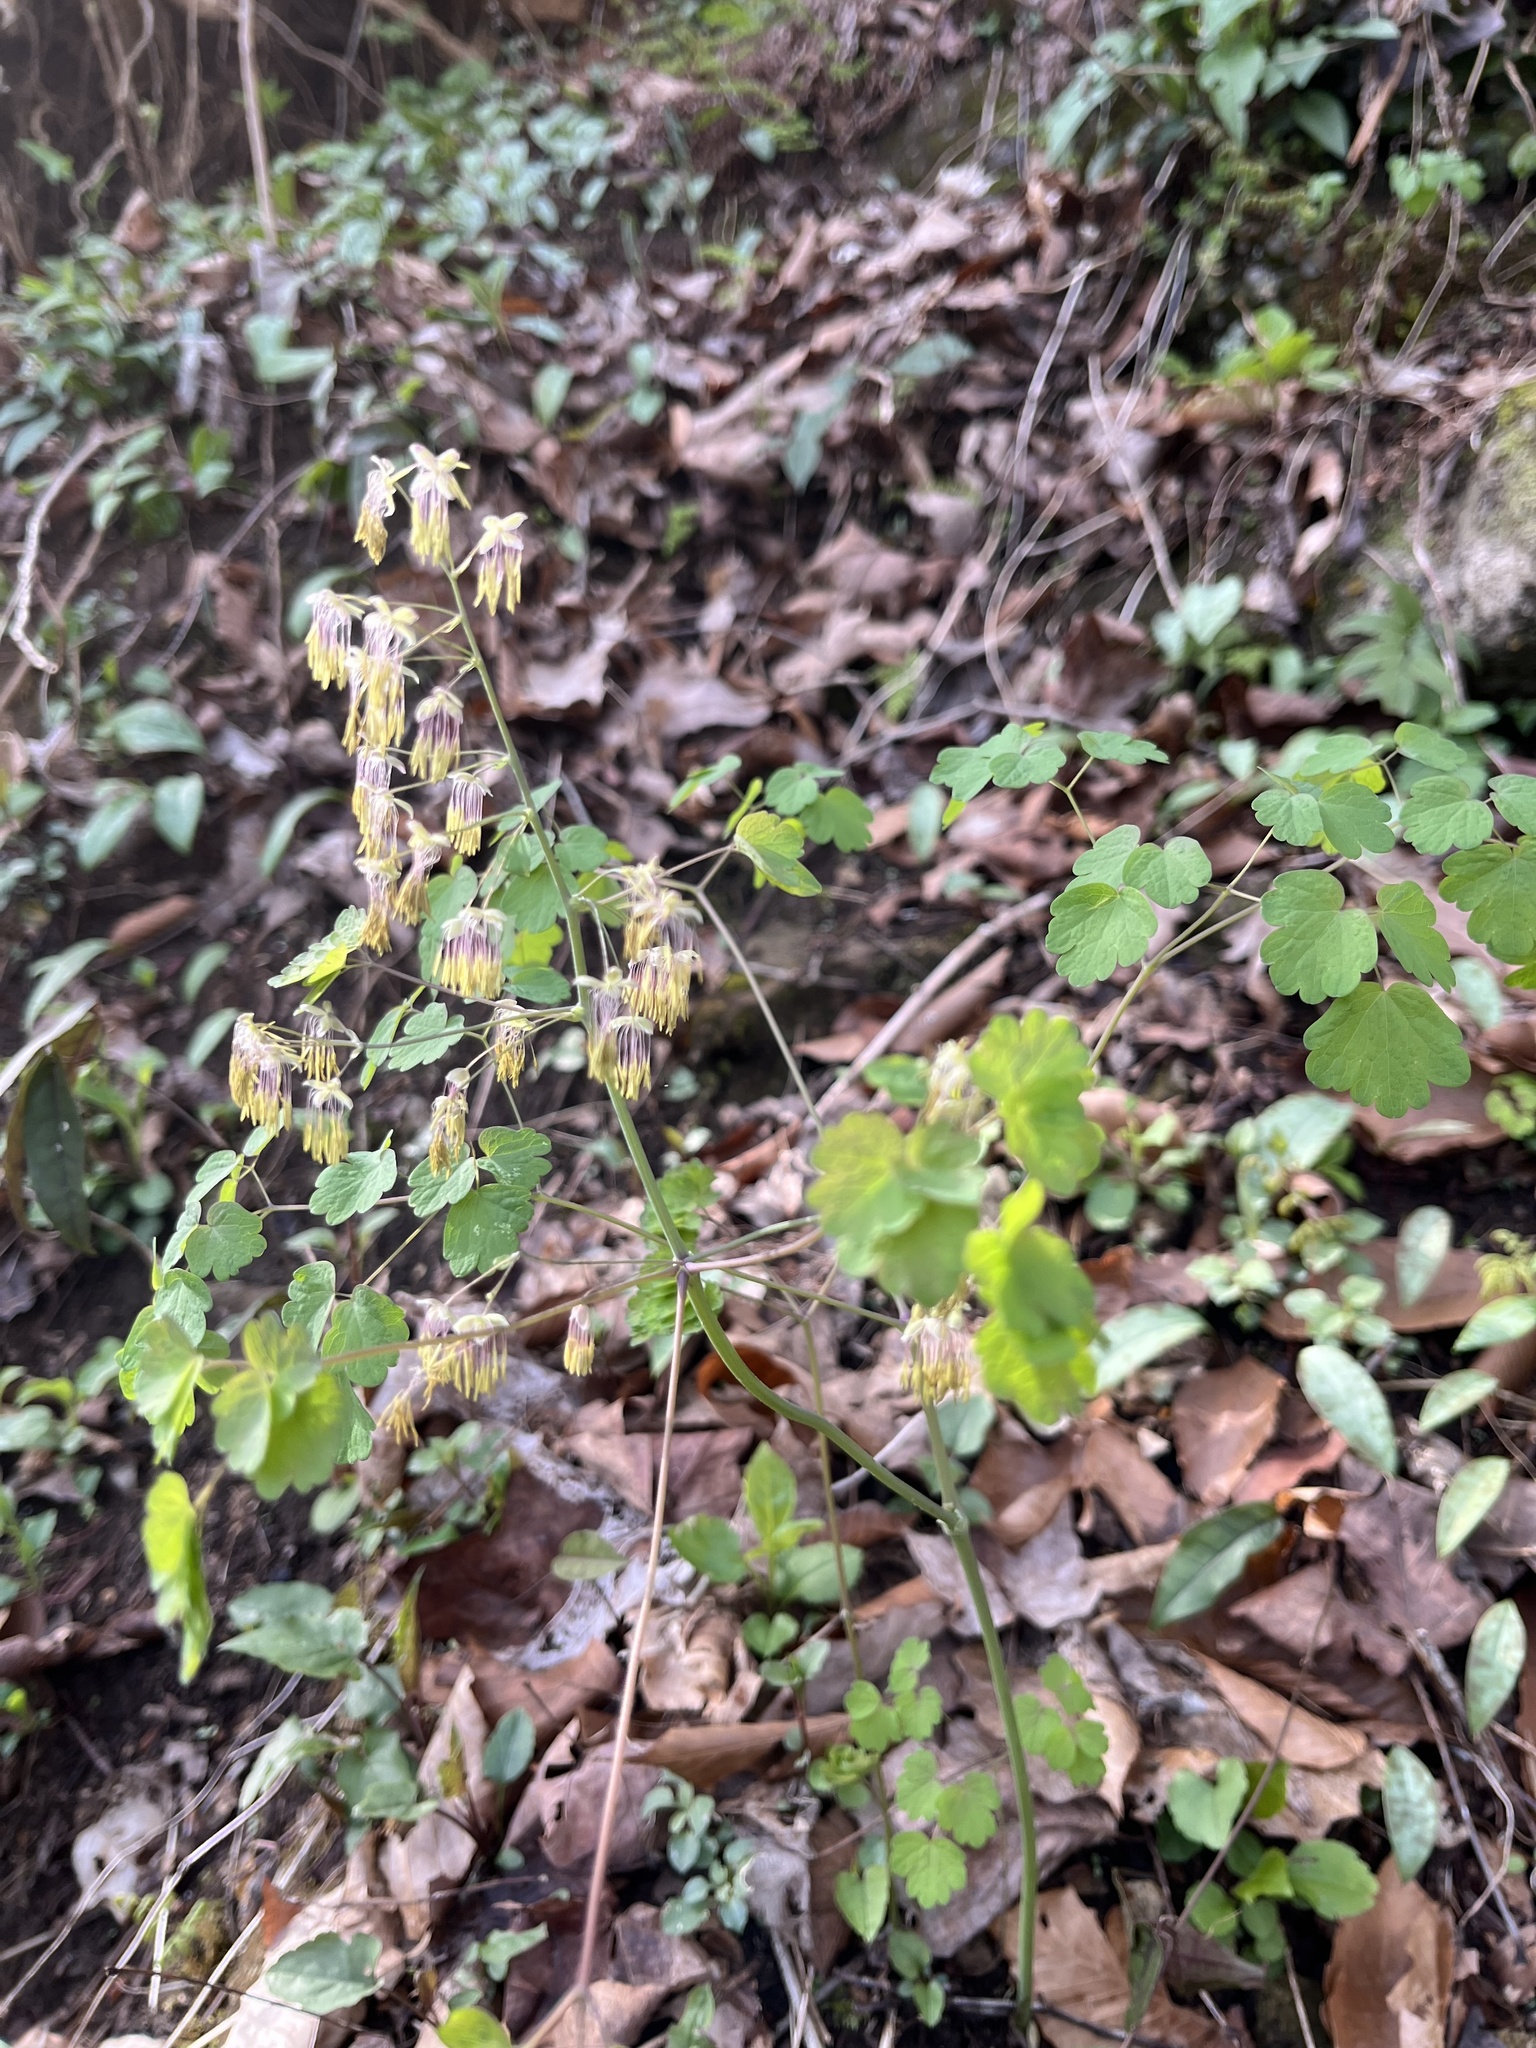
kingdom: Plantae
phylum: Tracheophyta
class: Magnoliopsida
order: Ranunculales
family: Ranunculaceae
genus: Thalictrum
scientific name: Thalictrum dioicum
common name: Early meadow-rue
